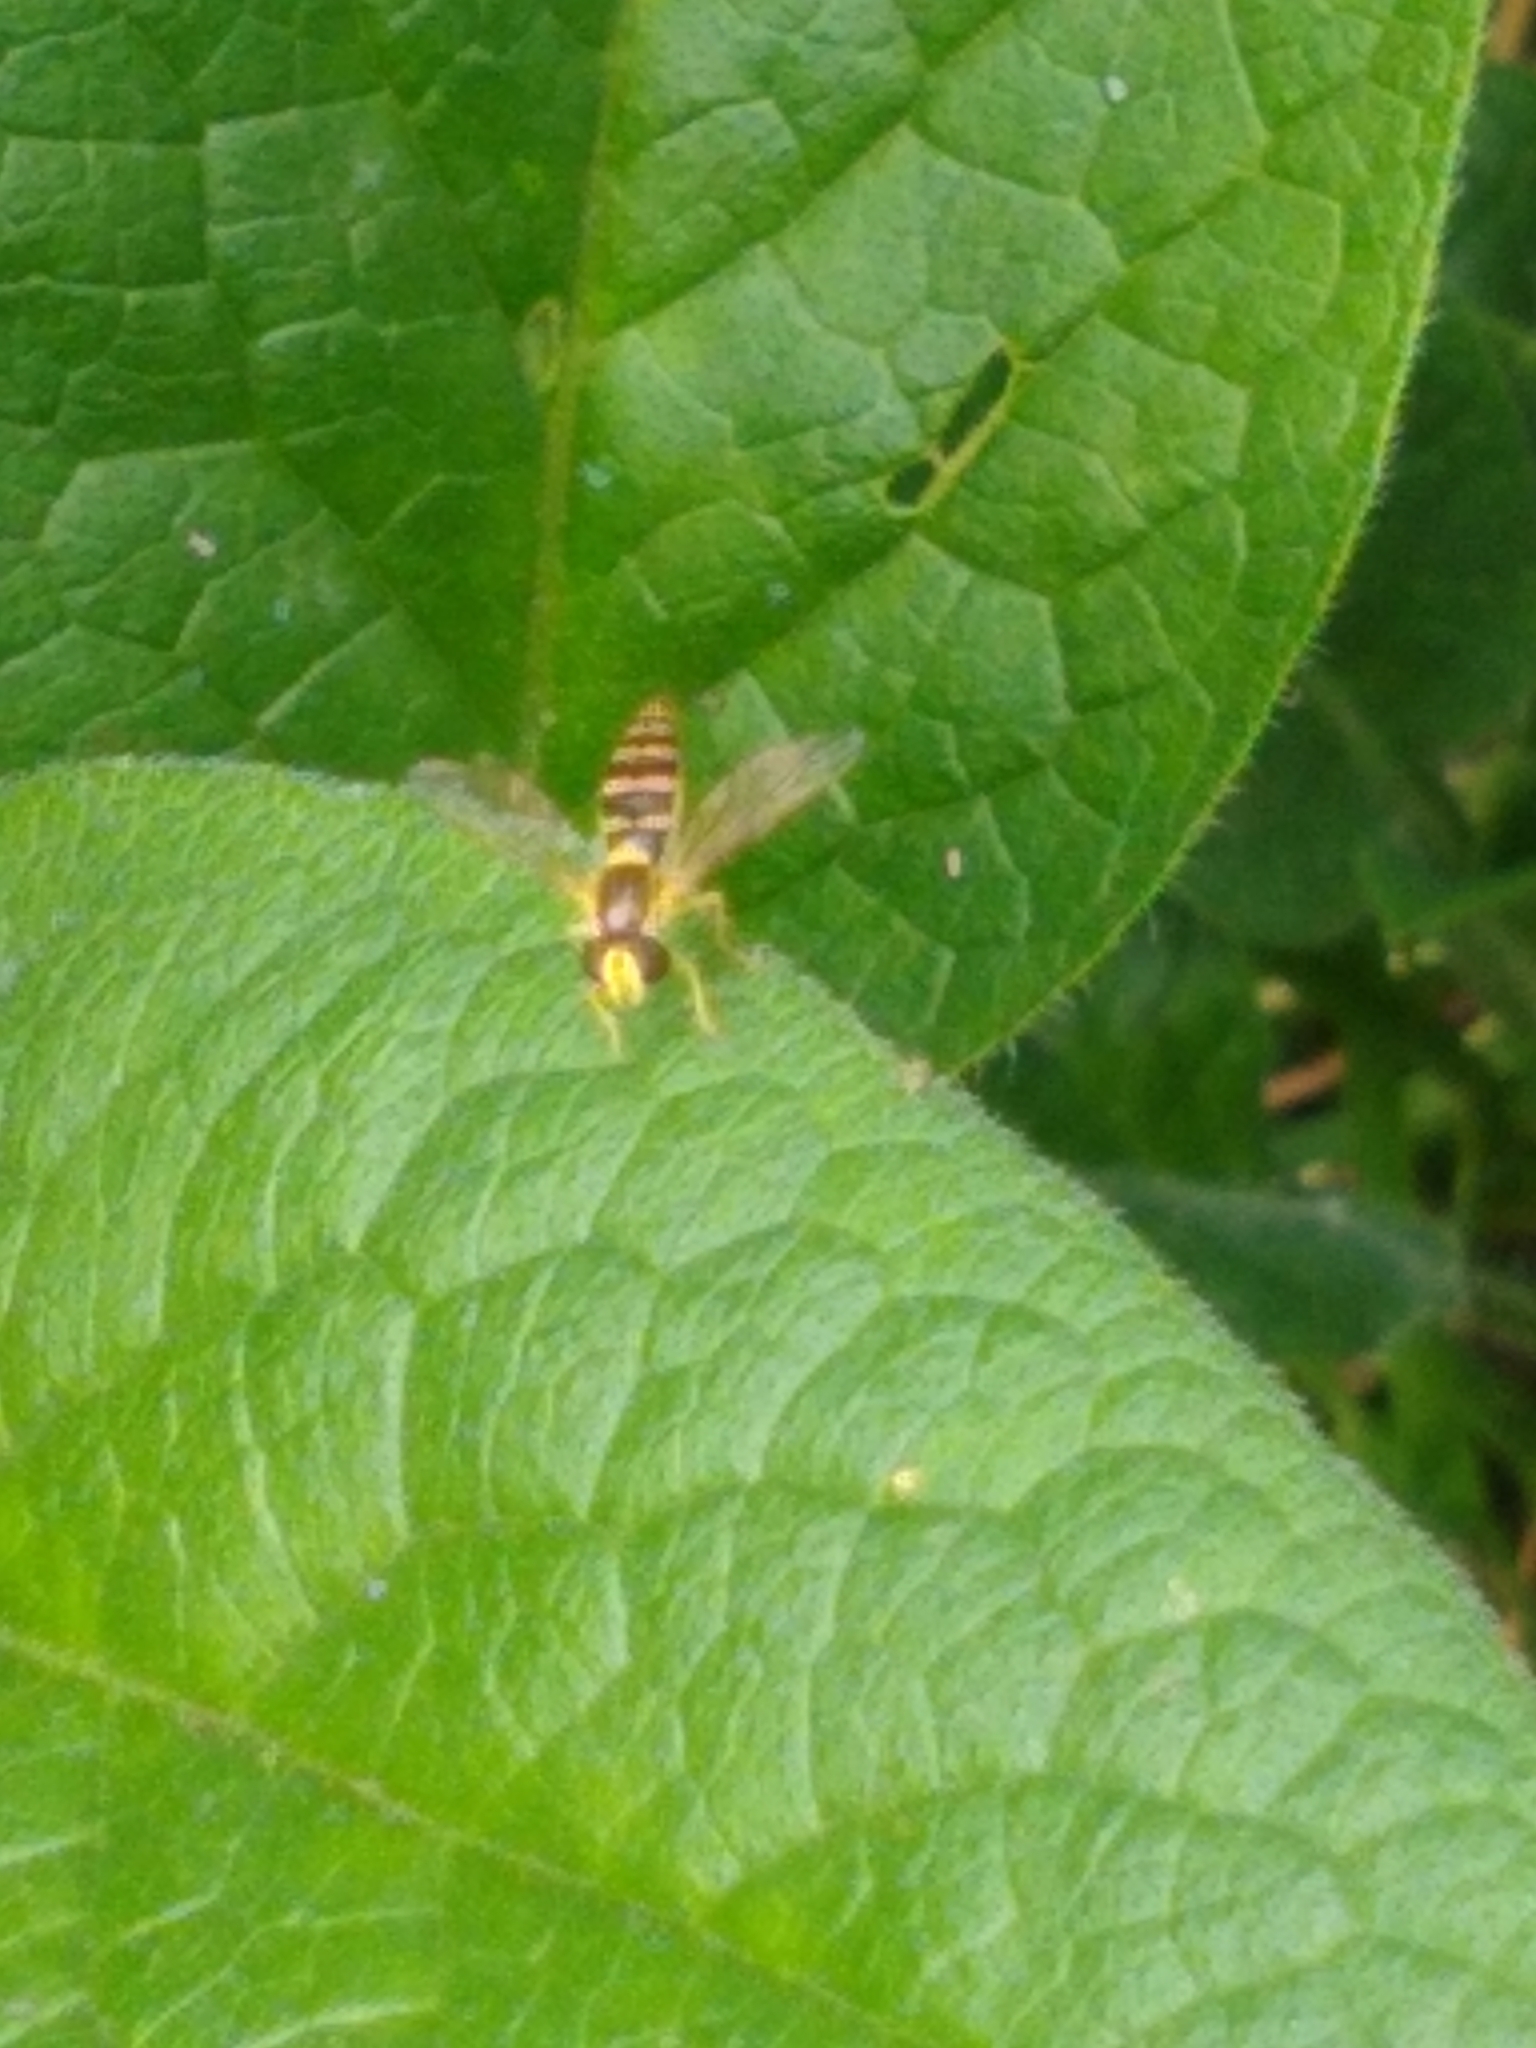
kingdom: Animalia
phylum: Arthropoda
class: Insecta
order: Diptera
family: Syrphidae
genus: Sphaerophoria
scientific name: Sphaerophoria
